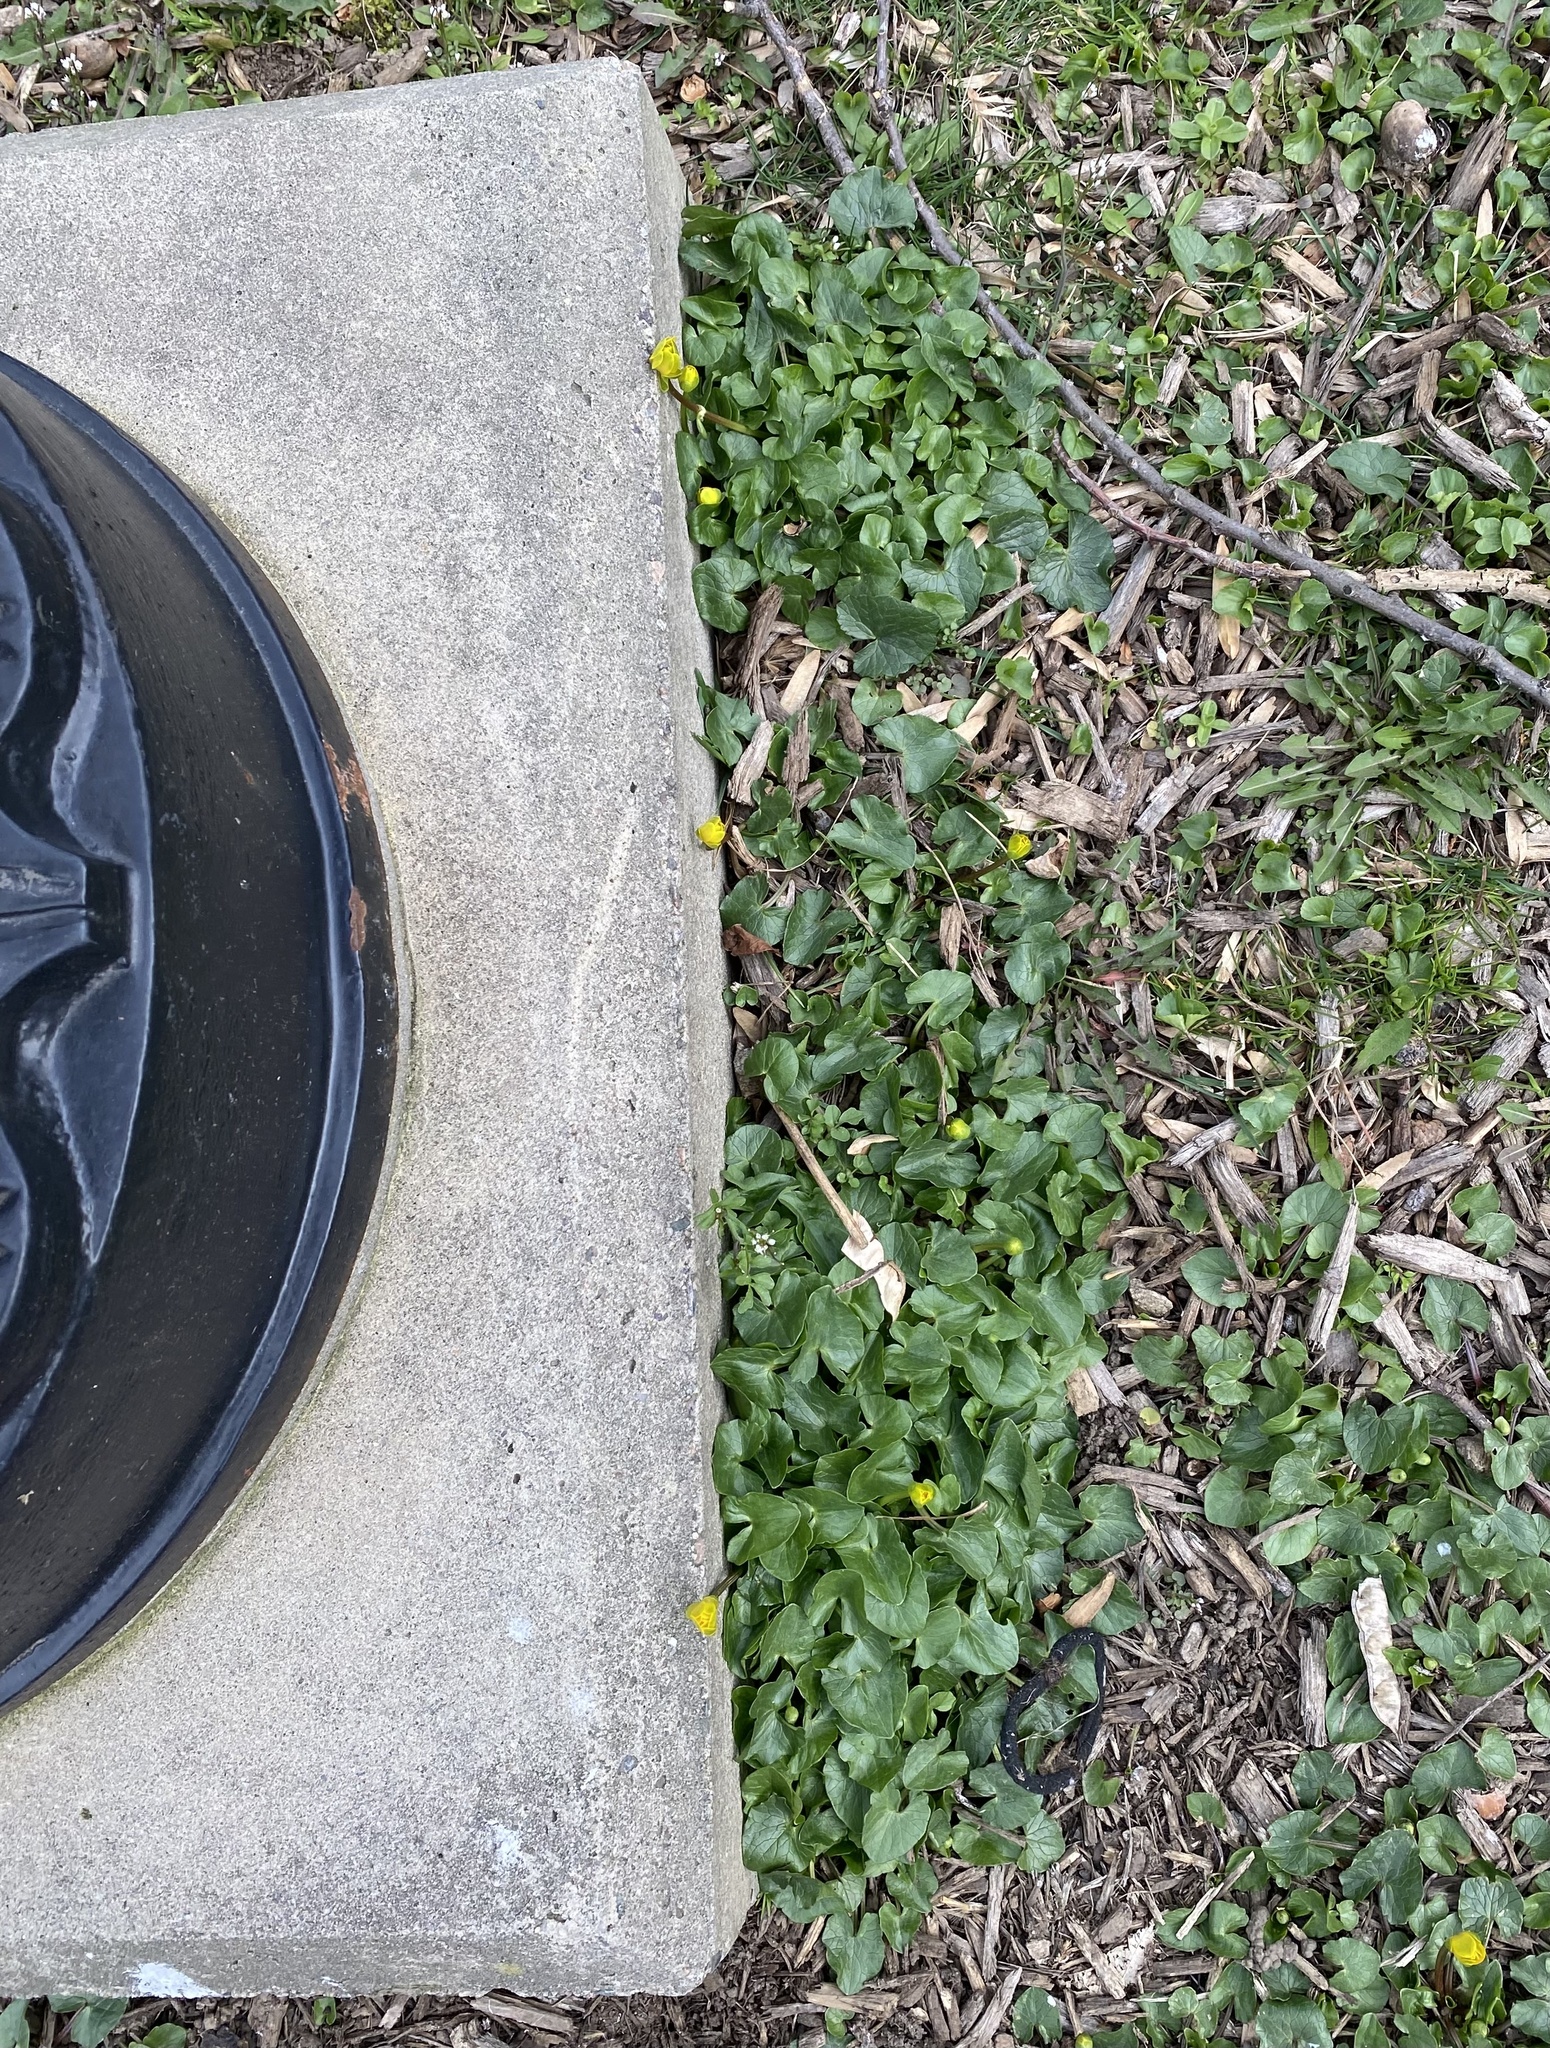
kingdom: Plantae
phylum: Tracheophyta
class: Magnoliopsida
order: Ranunculales
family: Ranunculaceae
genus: Ficaria
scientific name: Ficaria verna
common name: Lesser celandine
